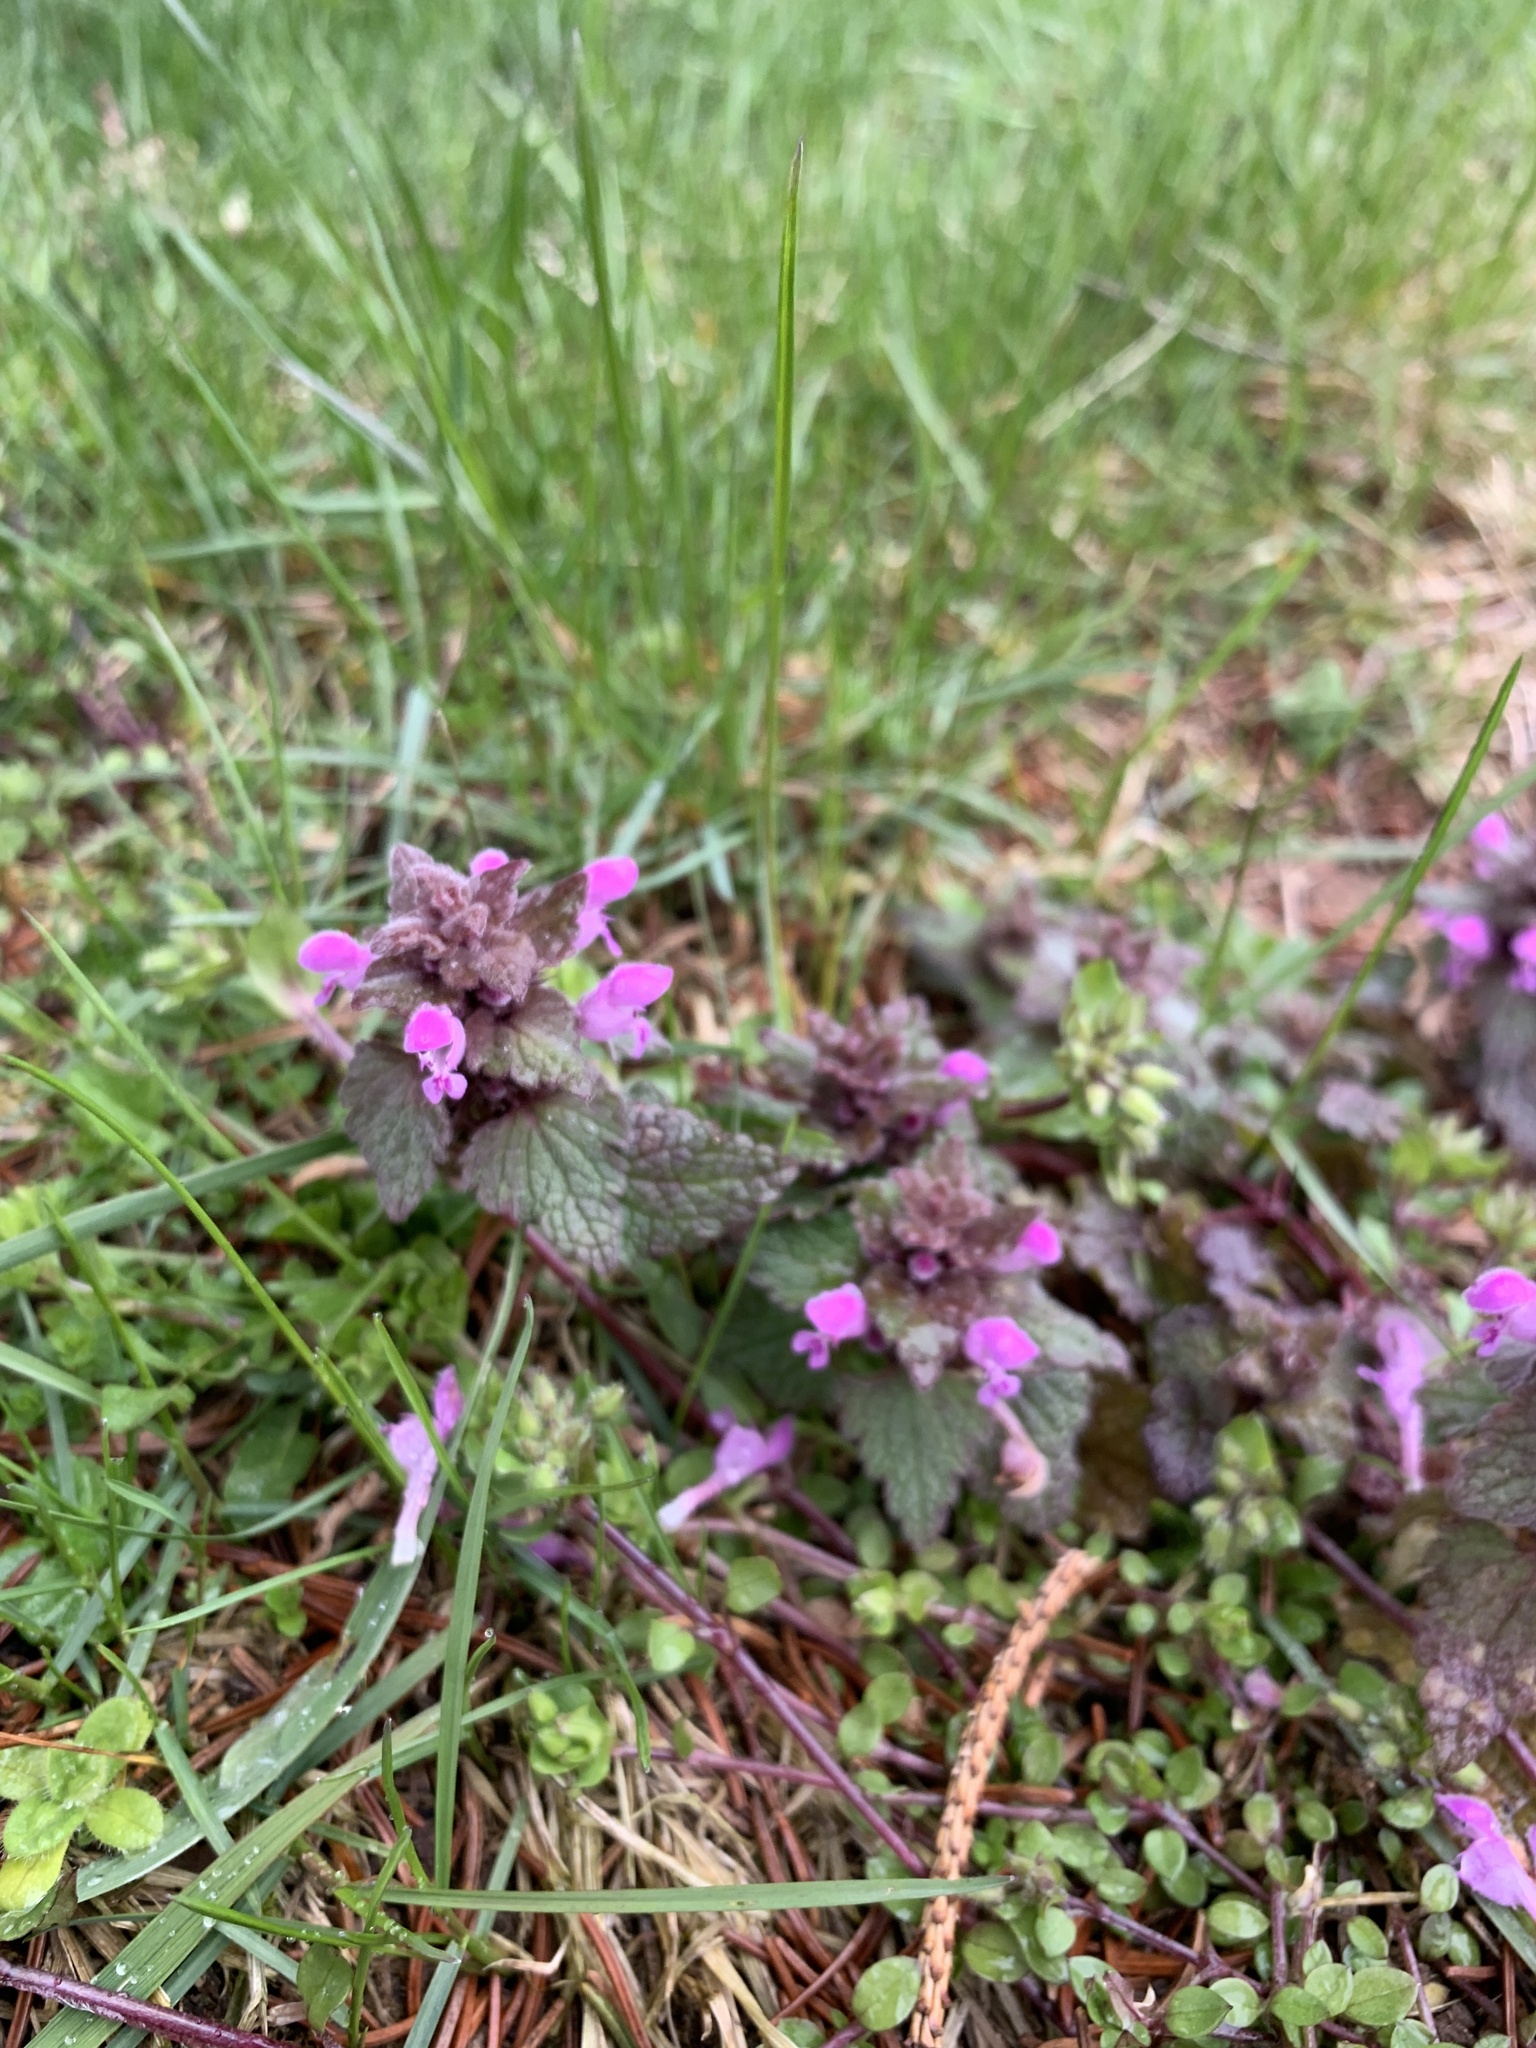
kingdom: Plantae
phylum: Tracheophyta
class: Magnoliopsida
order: Lamiales
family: Lamiaceae
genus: Lamium
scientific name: Lamium purpureum
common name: Red dead-nettle
